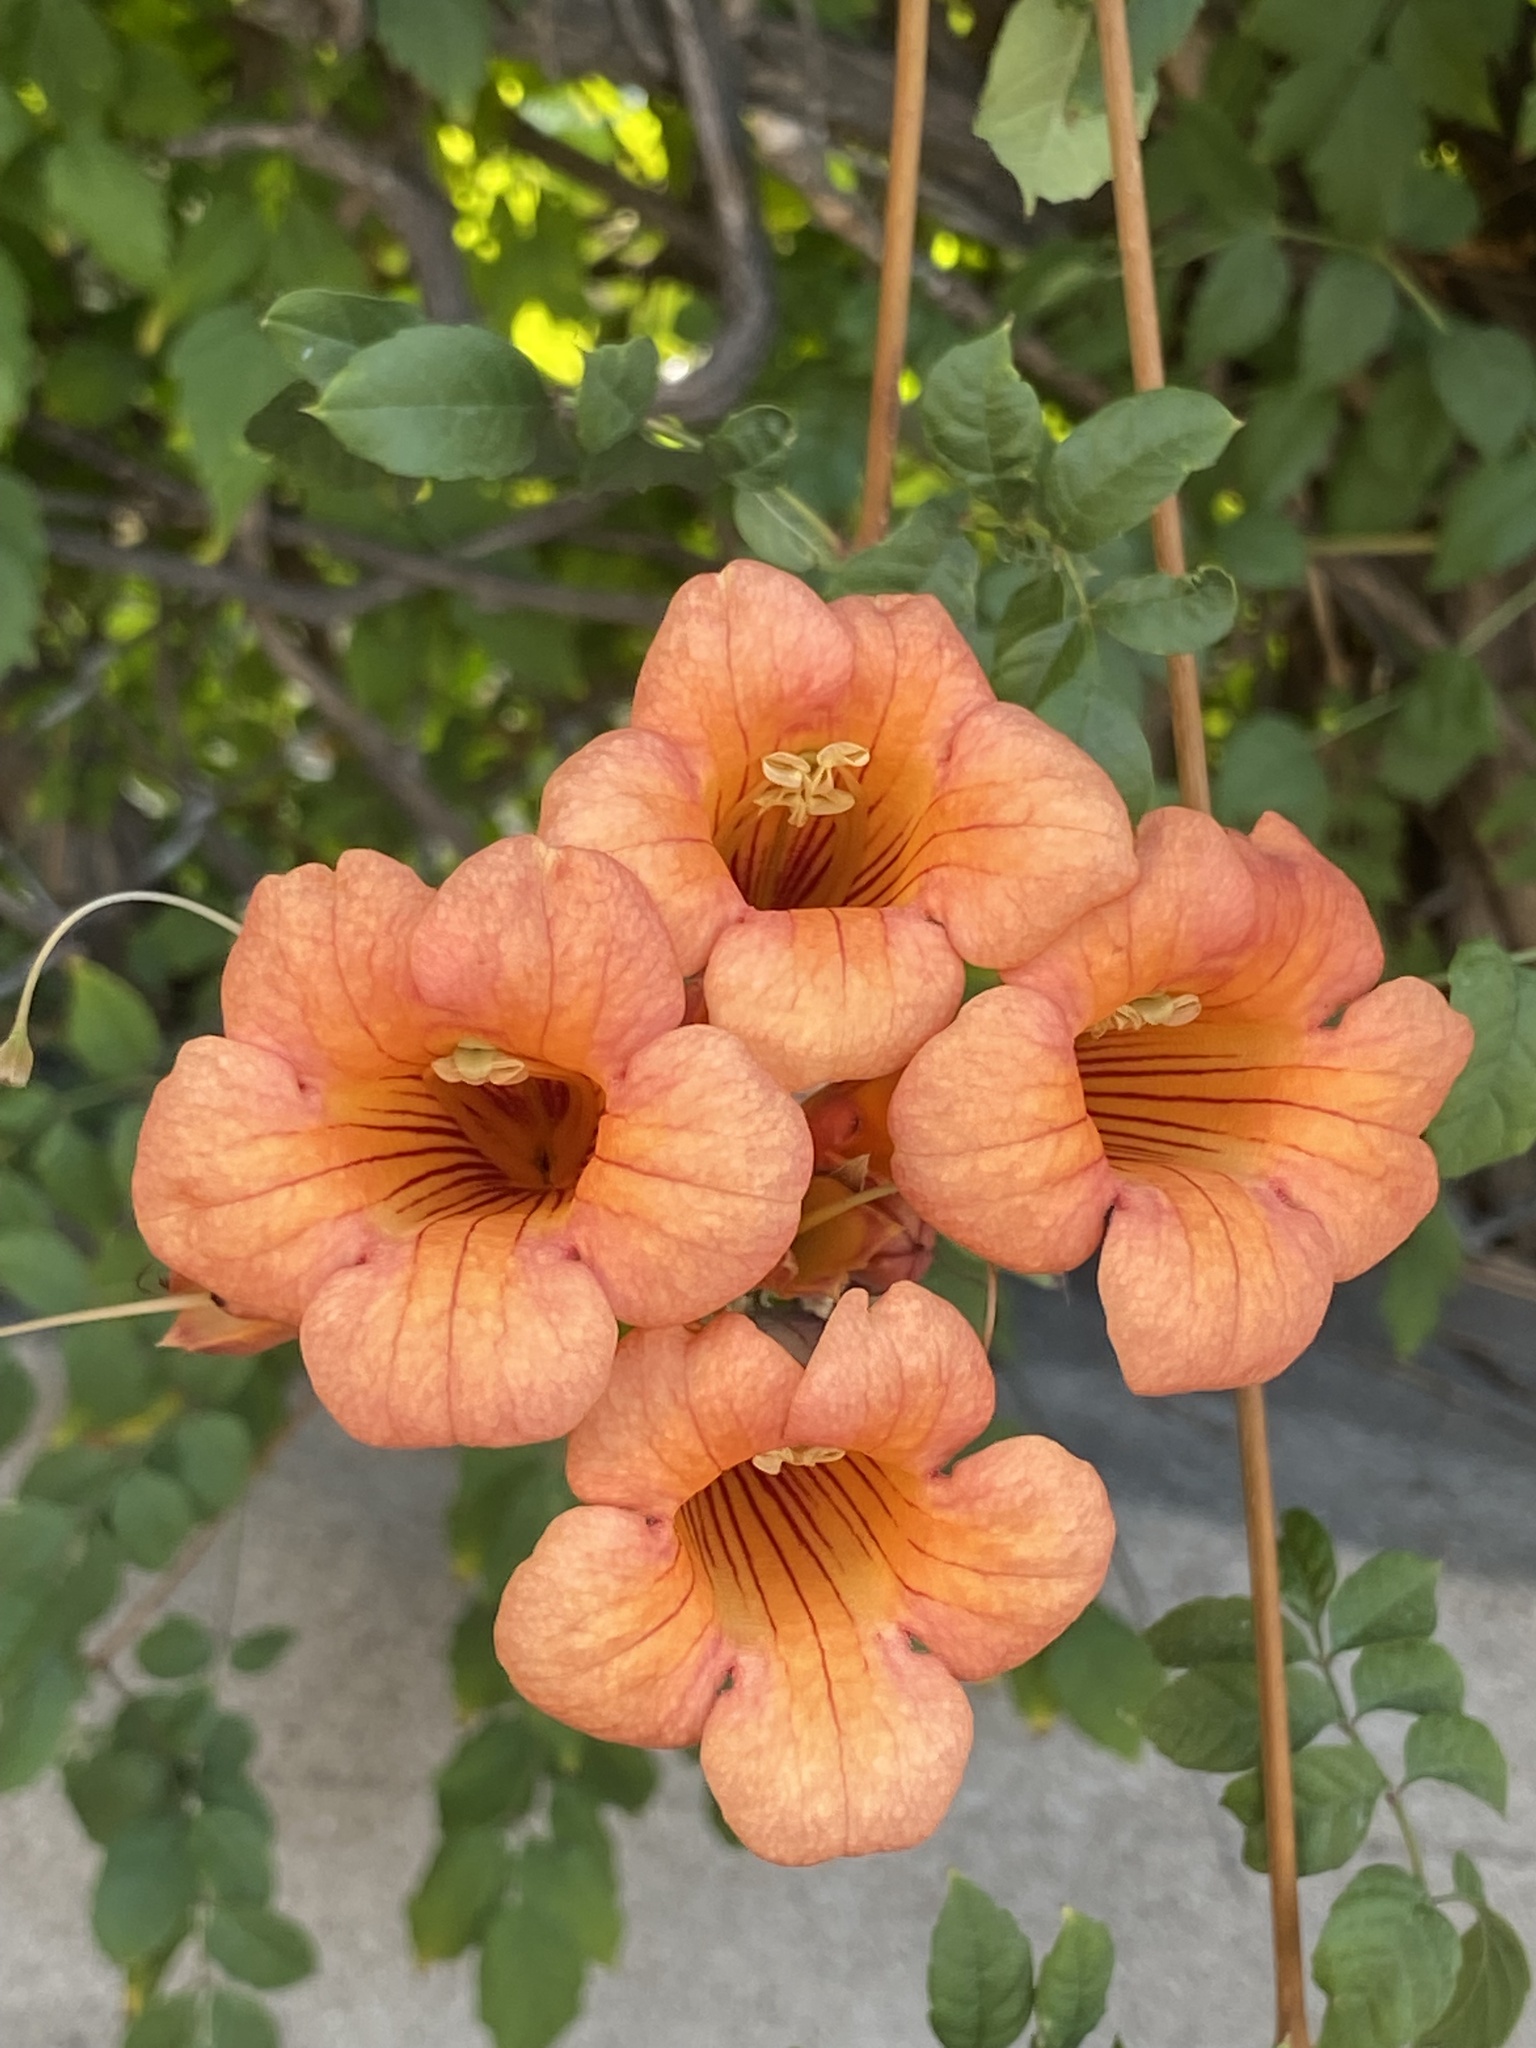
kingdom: Plantae
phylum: Tracheophyta
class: Magnoliopsida
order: Lamiales
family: Bignoniaceae
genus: Campsis
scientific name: Campsis radicans
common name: Trumpet-creeper
